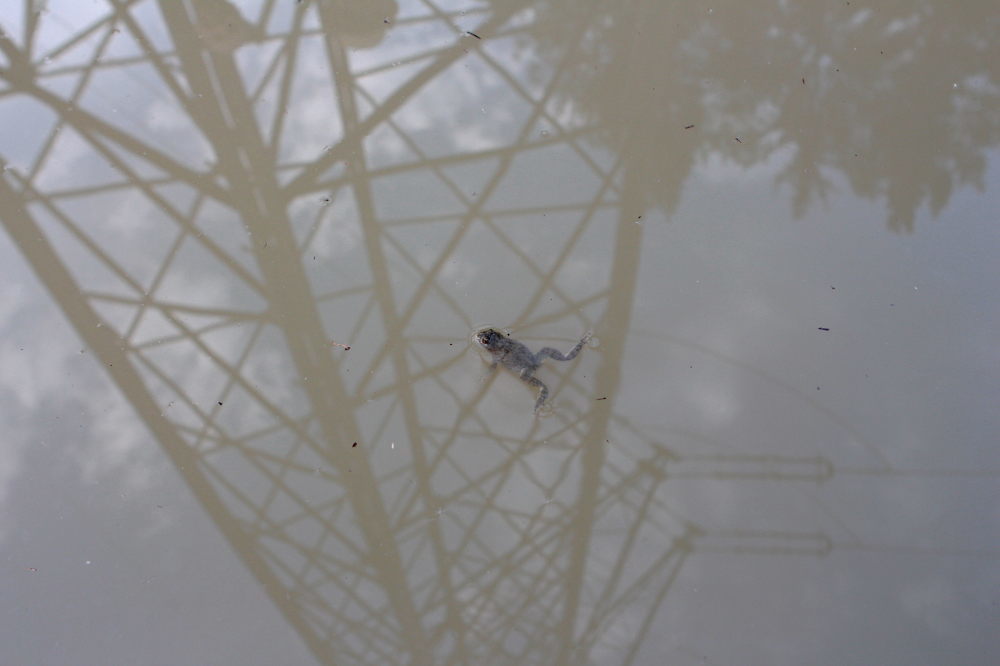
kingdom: Animalia
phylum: Chordata
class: Amphibia
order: Anura
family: Bombinatoridae
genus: Bombina
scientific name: Bombina variegata
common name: Yellow-bellied toad
